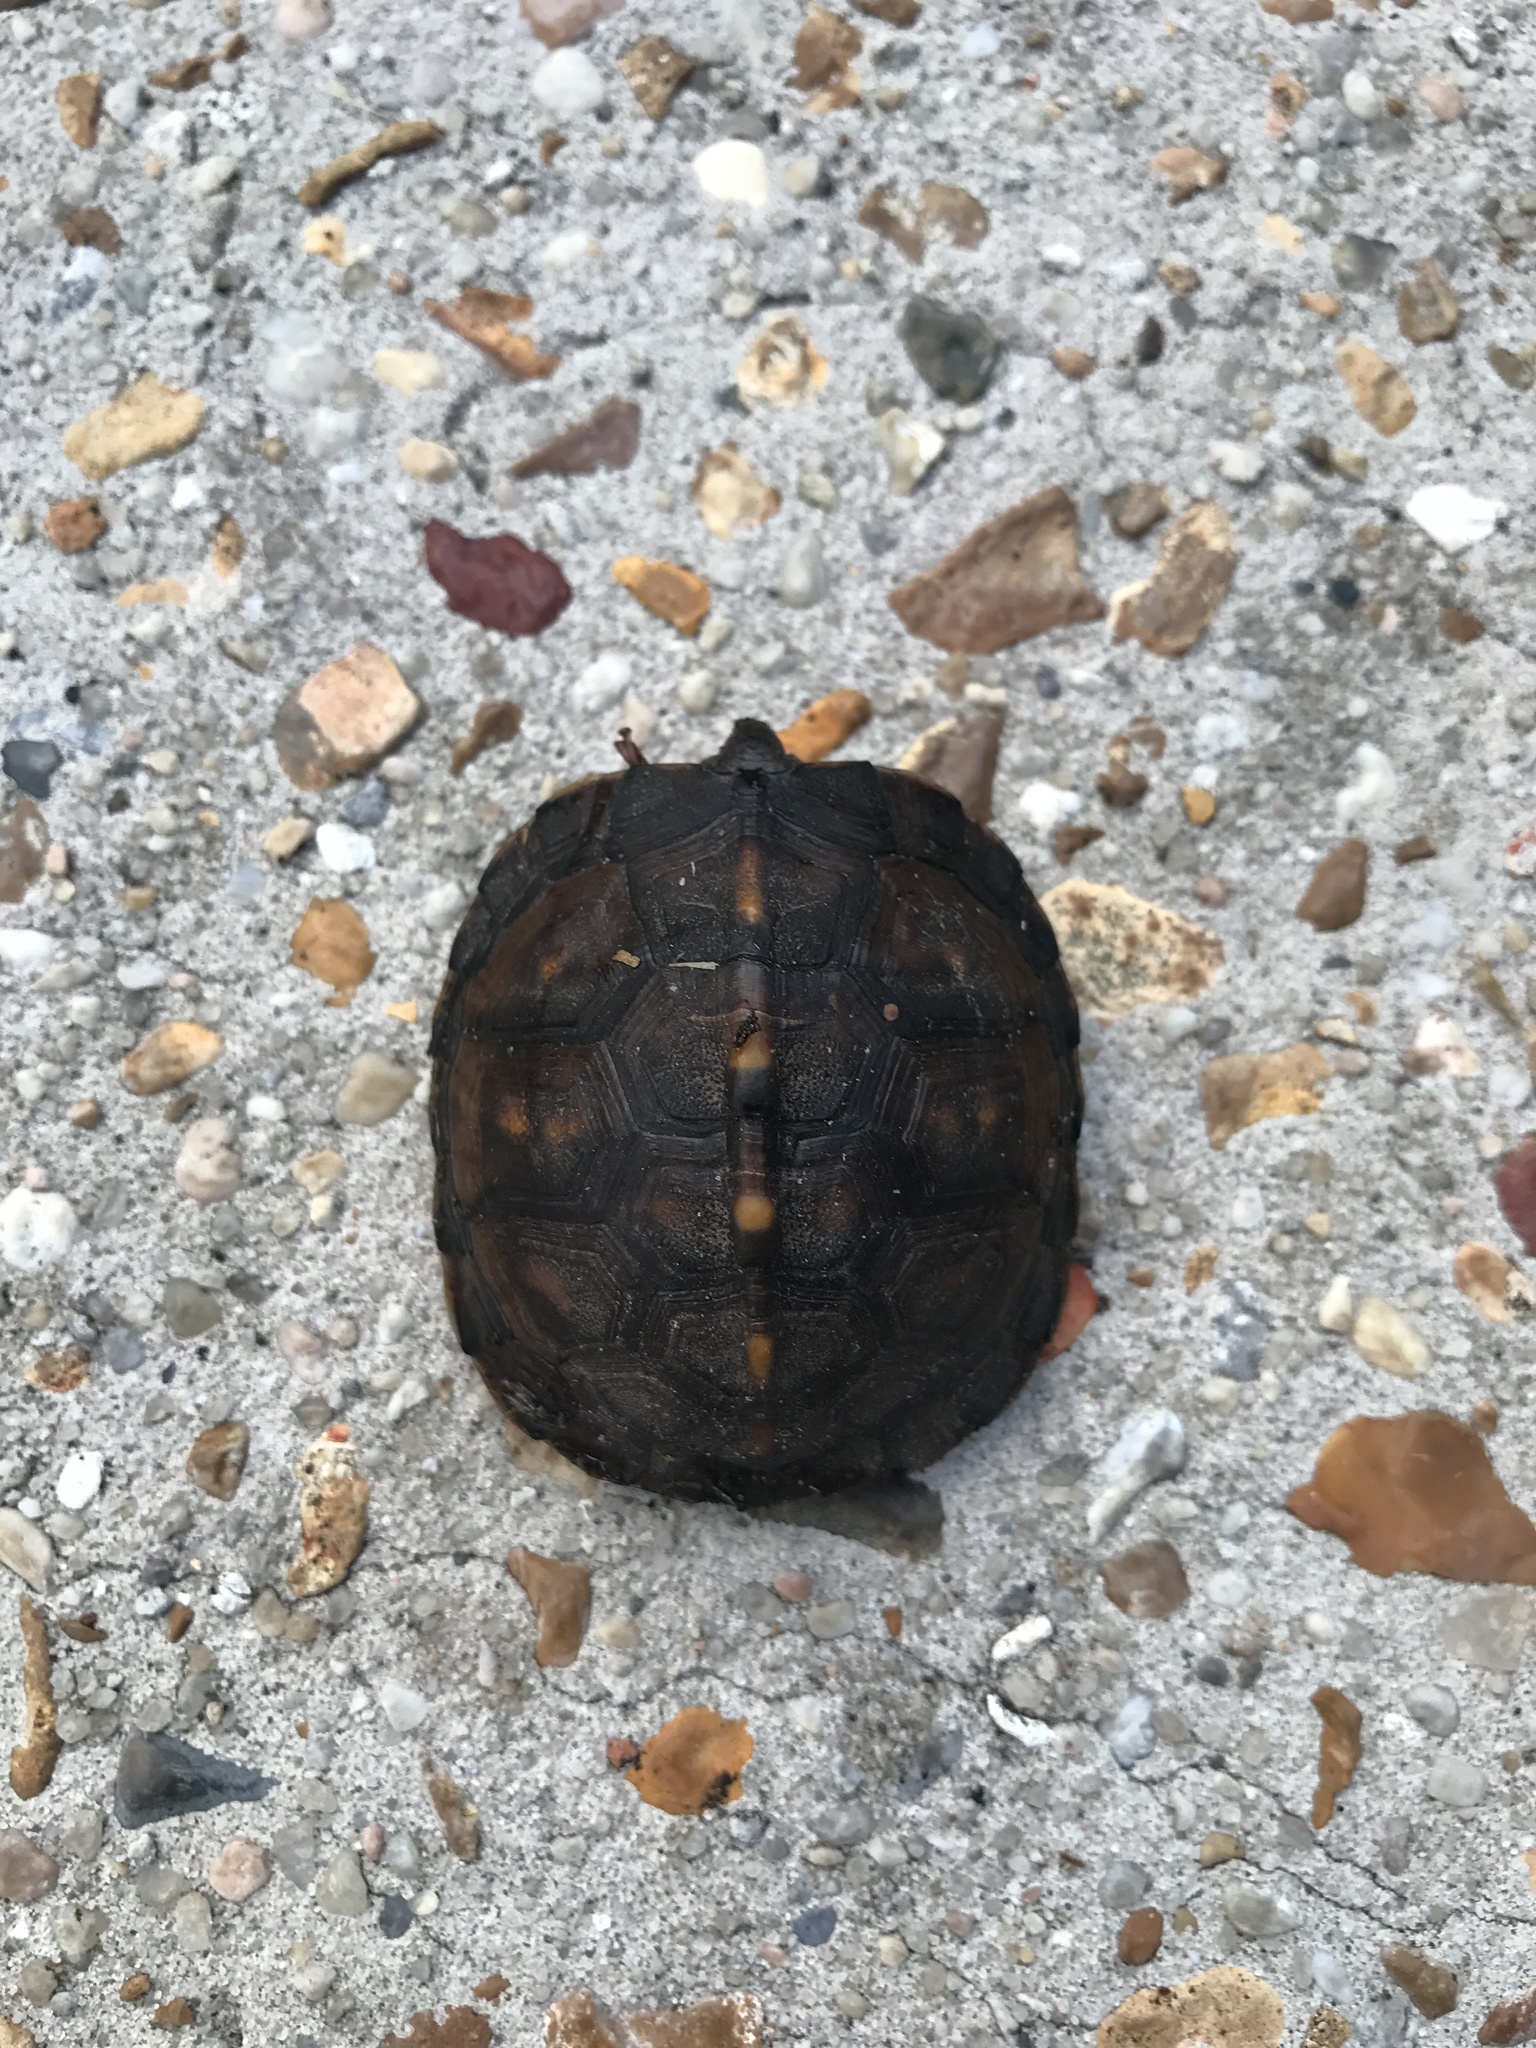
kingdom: Animalia
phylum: Chordata
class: Testudines
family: Emydidae
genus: Terrapene
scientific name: Terrapene carolina
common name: Common box turtle
